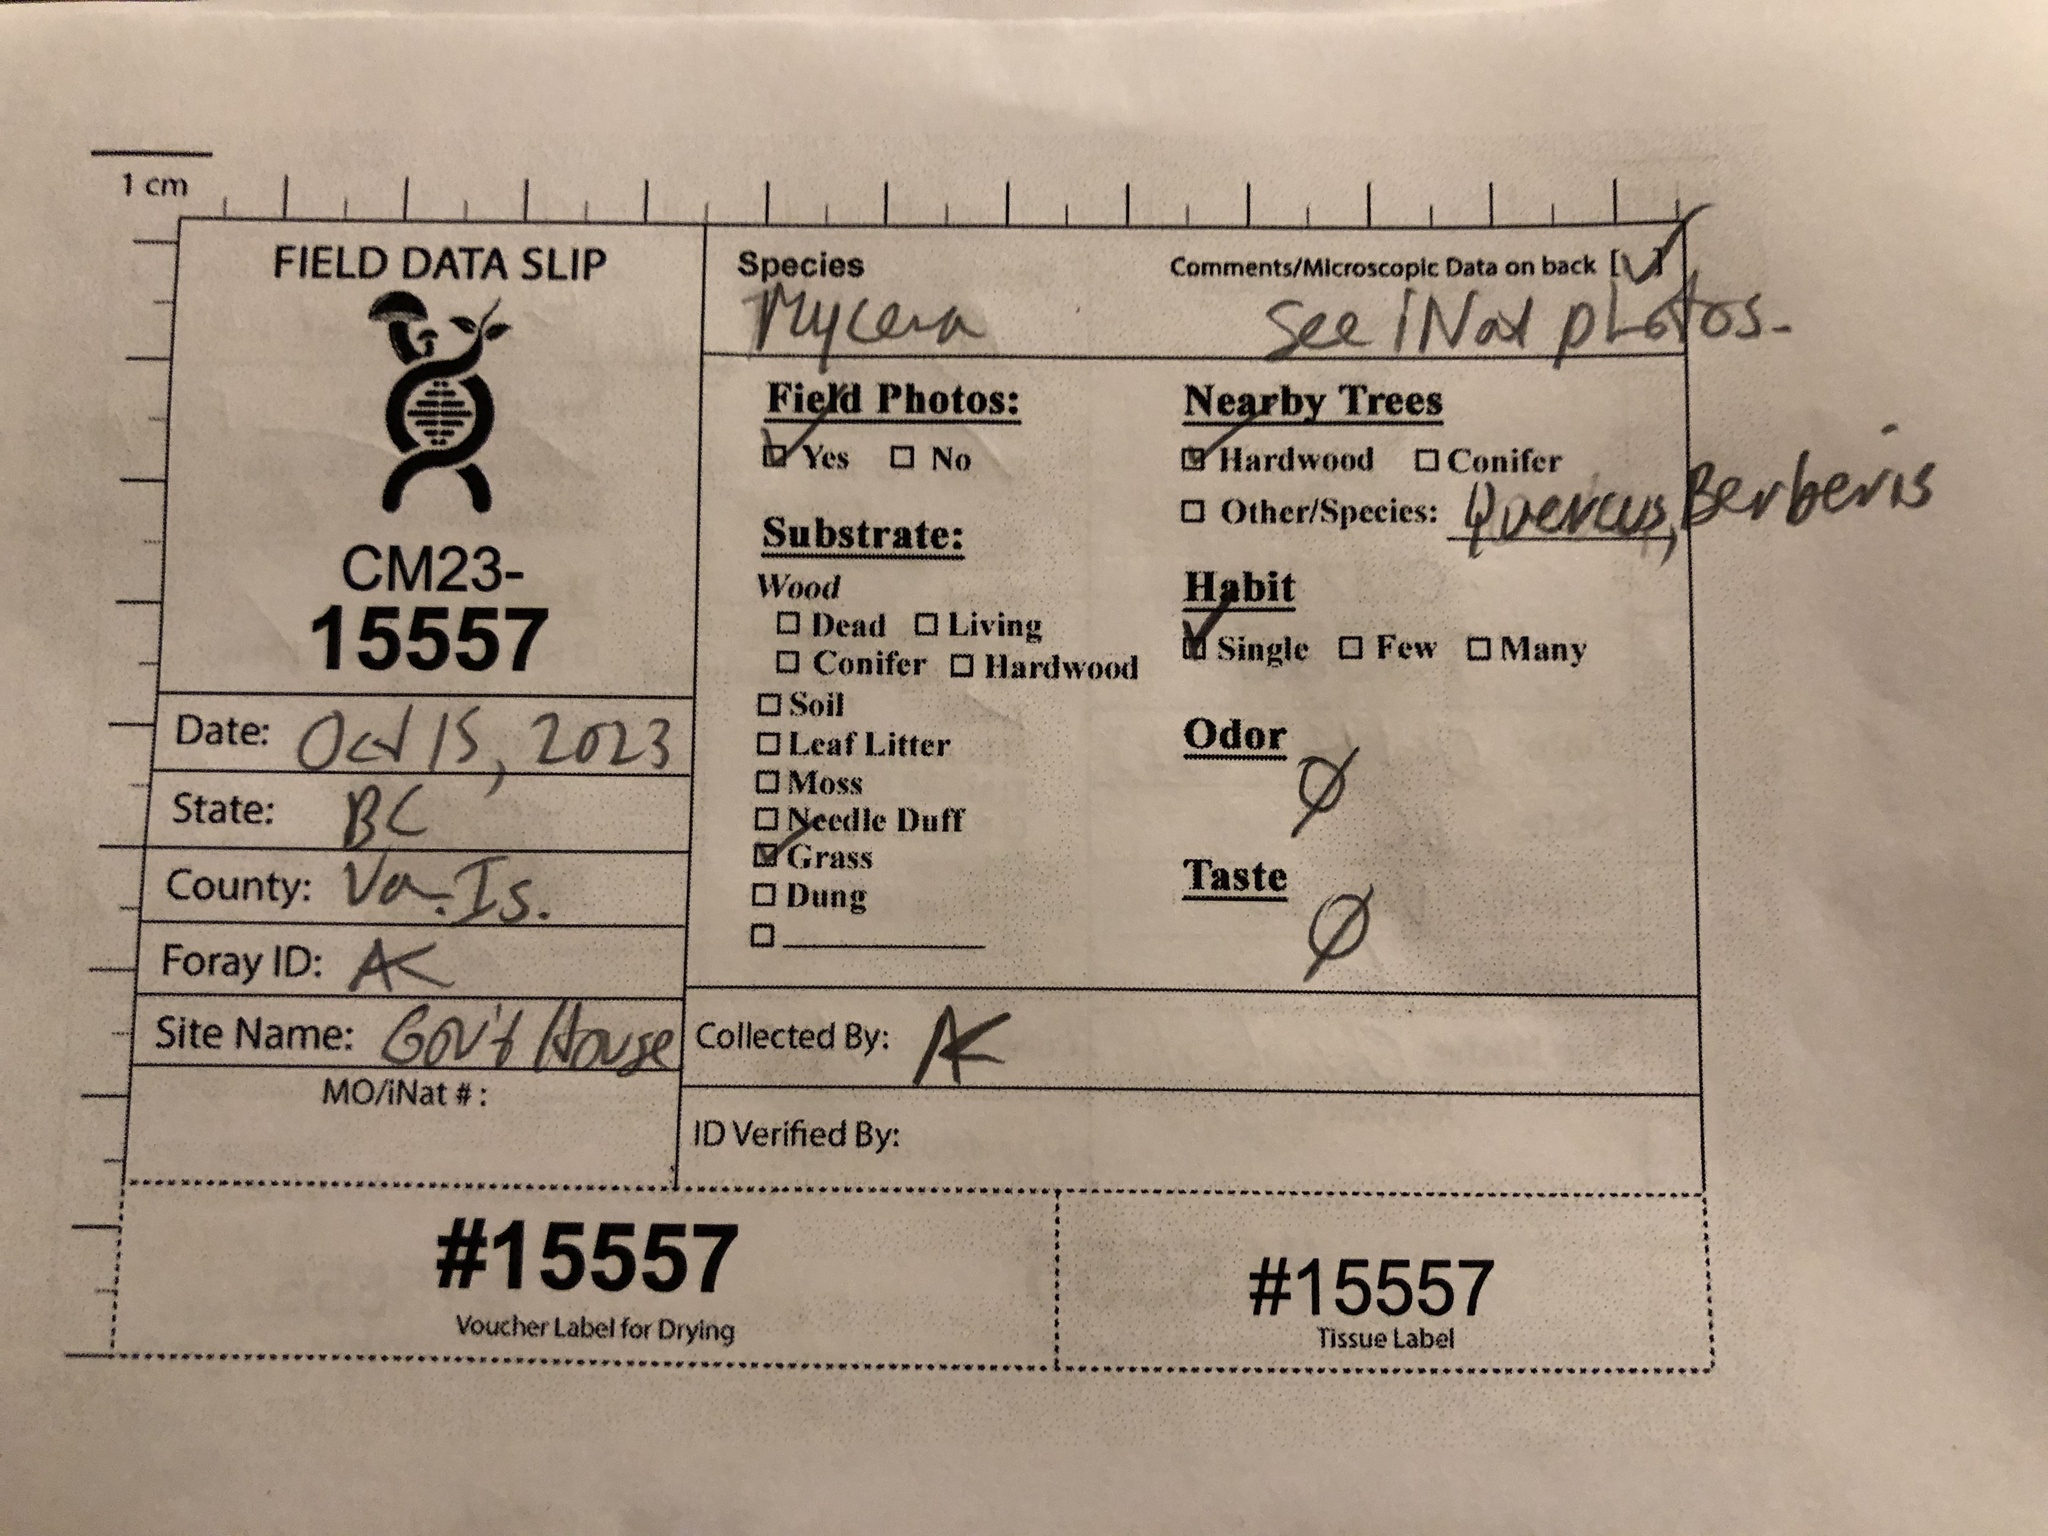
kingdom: Fungi
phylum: Basidiomycota
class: Agaricomycetes
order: Agaricales
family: Mycenaceae
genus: Mycena
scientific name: Mycena vitilis
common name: Snapping bonnet
